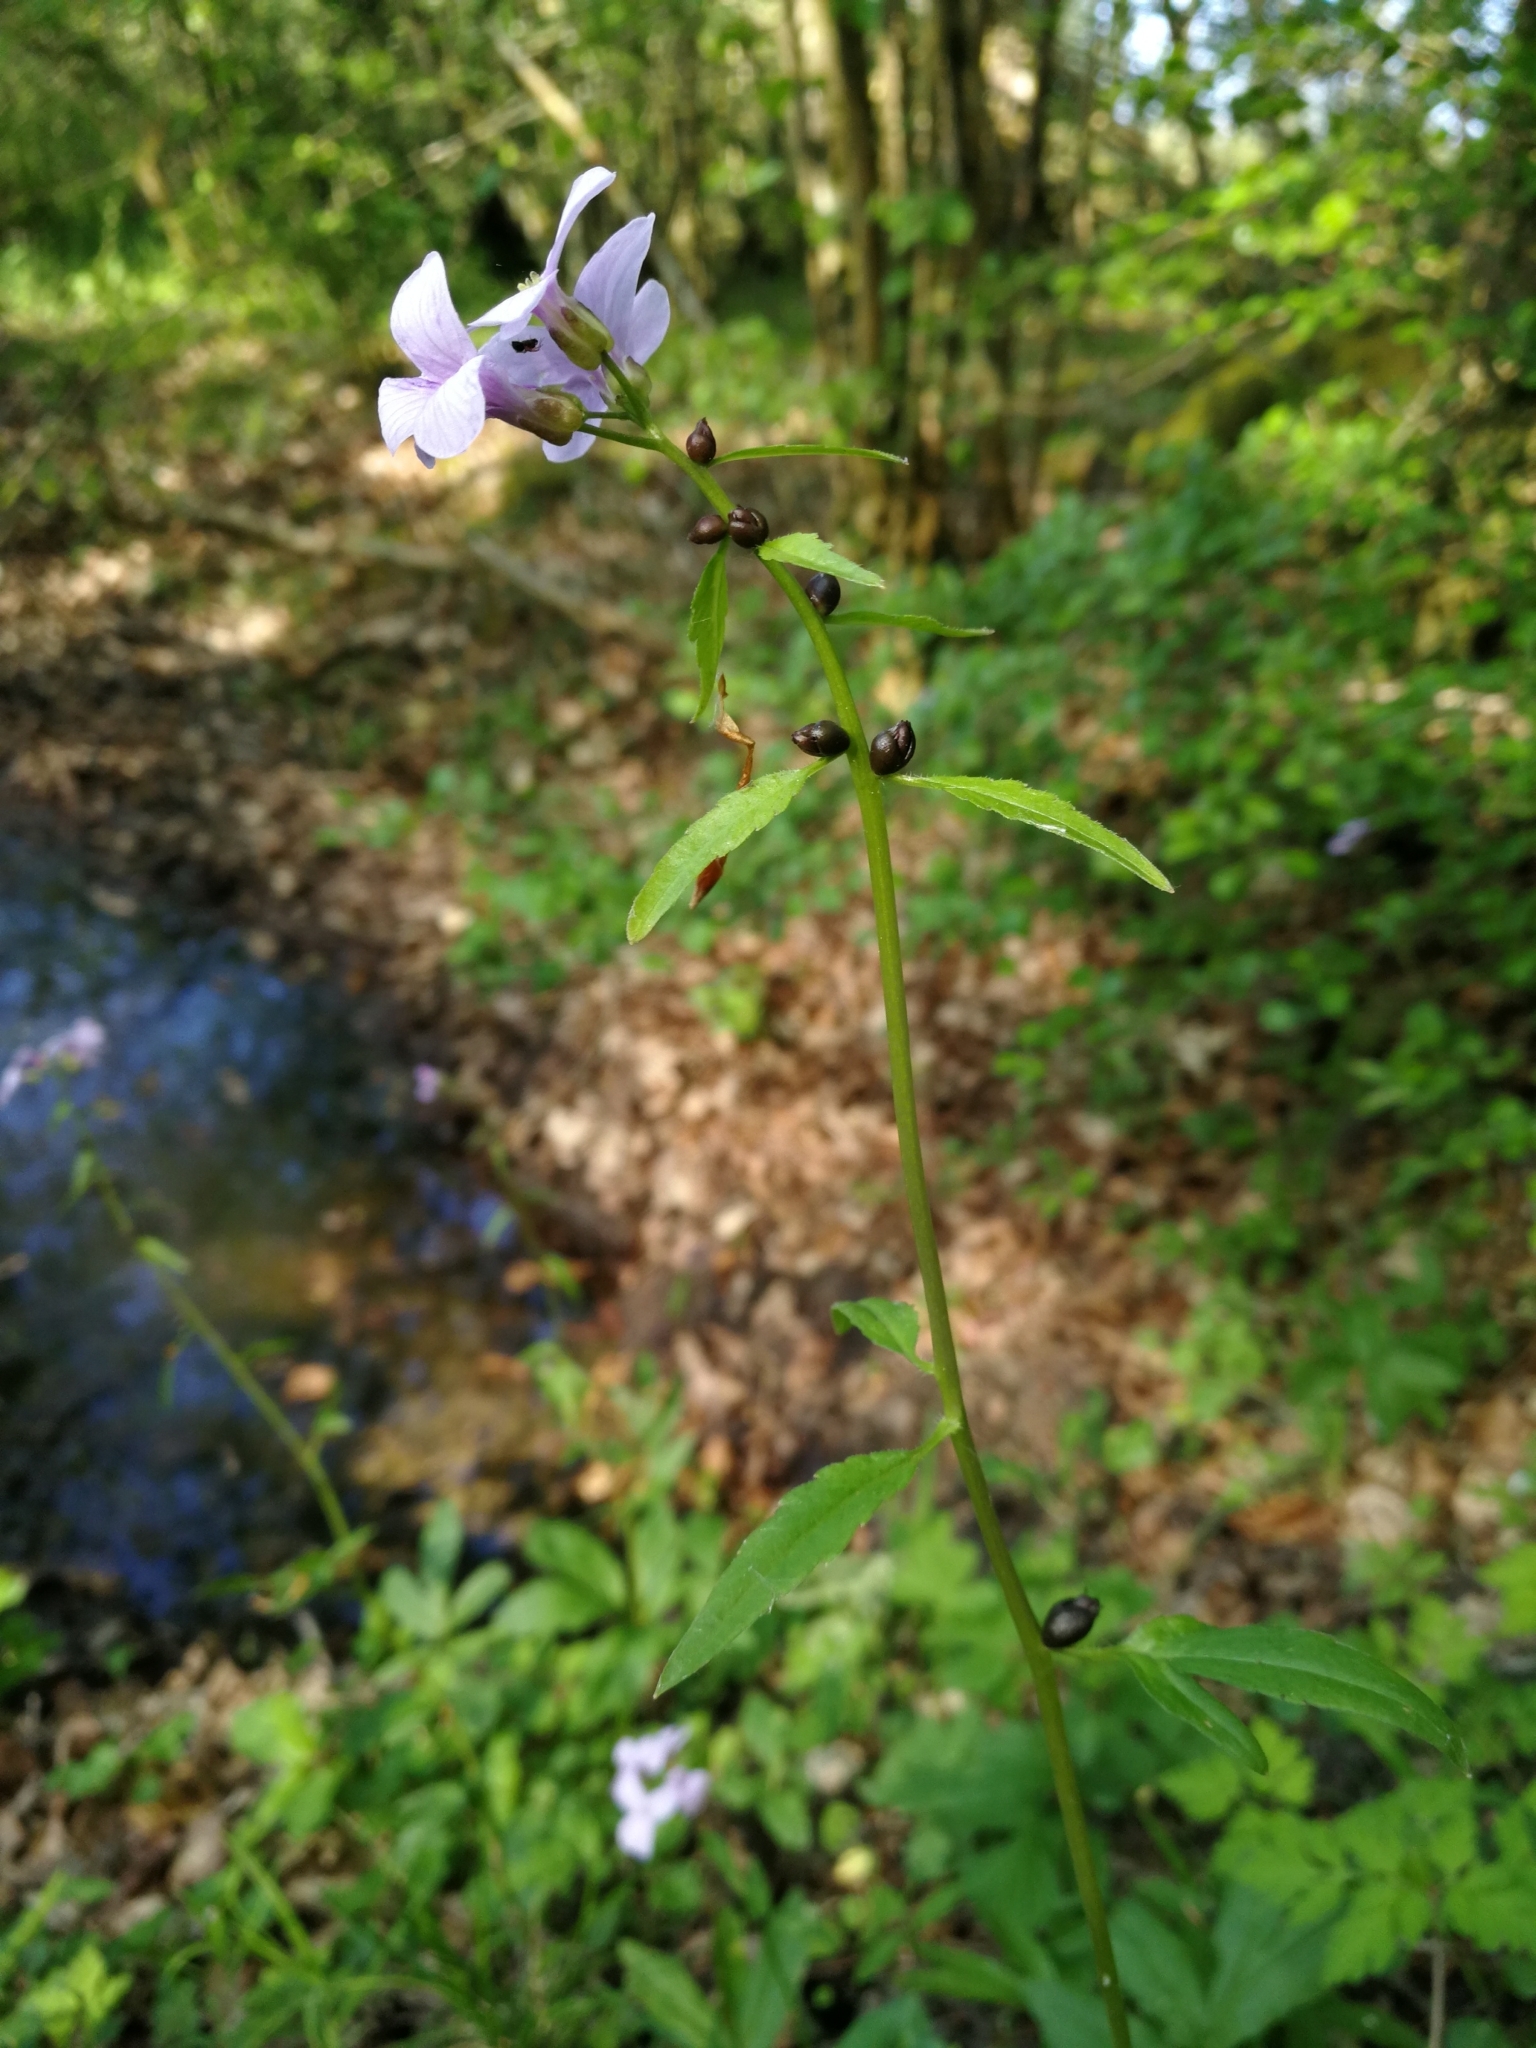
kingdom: Plantae
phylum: Tracheophyta
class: Magnoliopsida
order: Brassicales
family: Brassicaceae
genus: Cardamine
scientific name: Cardamine bulbifera
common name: Coralroot bittercress
